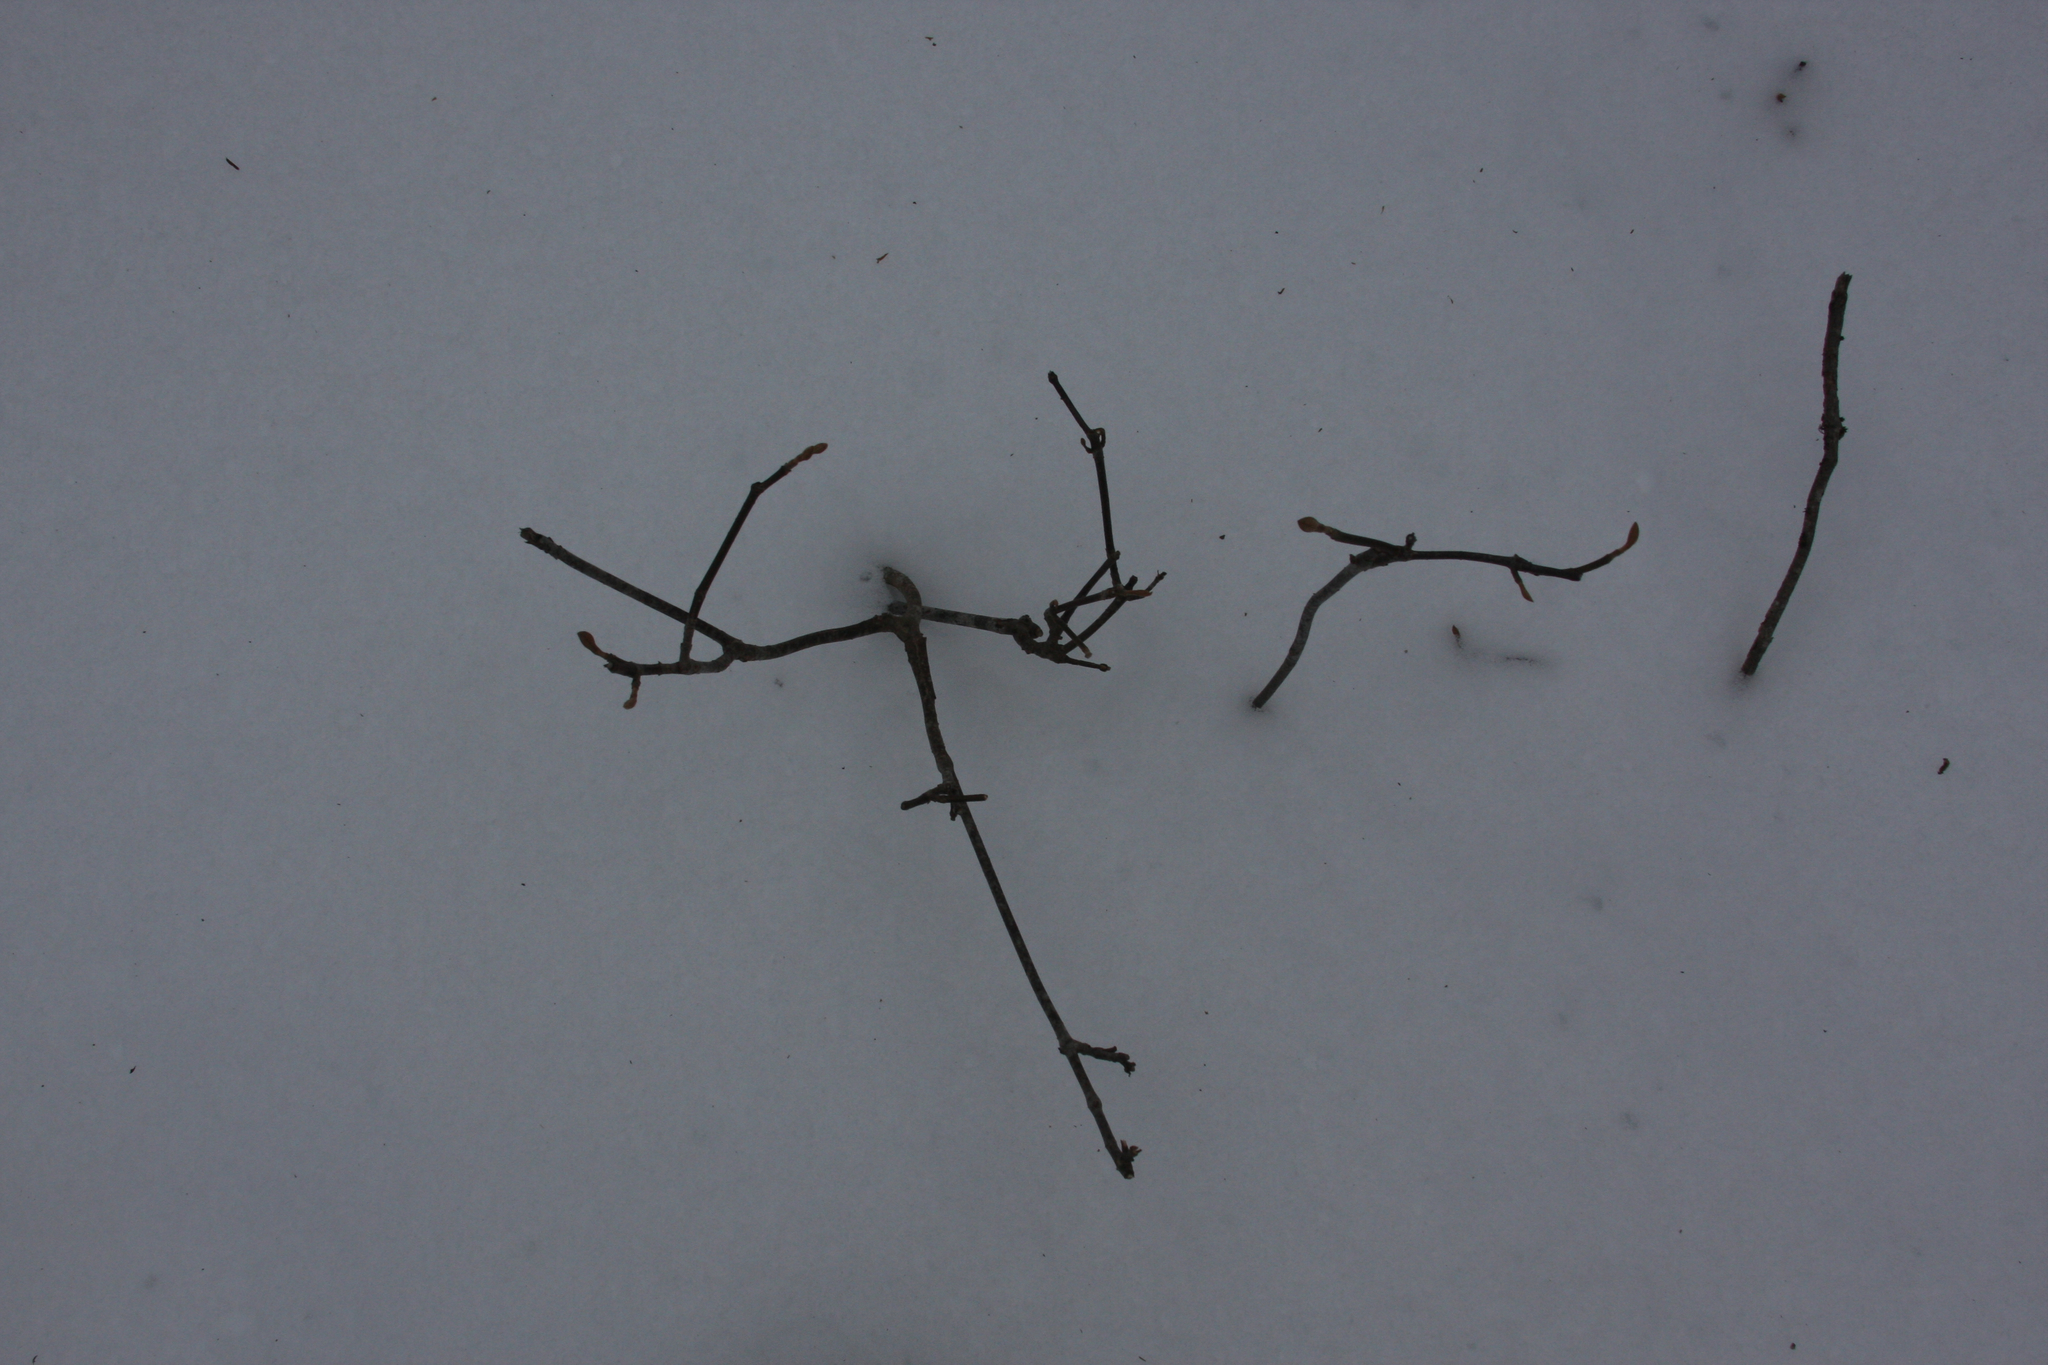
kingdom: Plantae
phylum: Tracheophyta
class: Magnoliopsida
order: Dipsacales
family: Viburnaceae
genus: Viburnum
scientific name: Viburnum lantanoides
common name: Hobblebush
